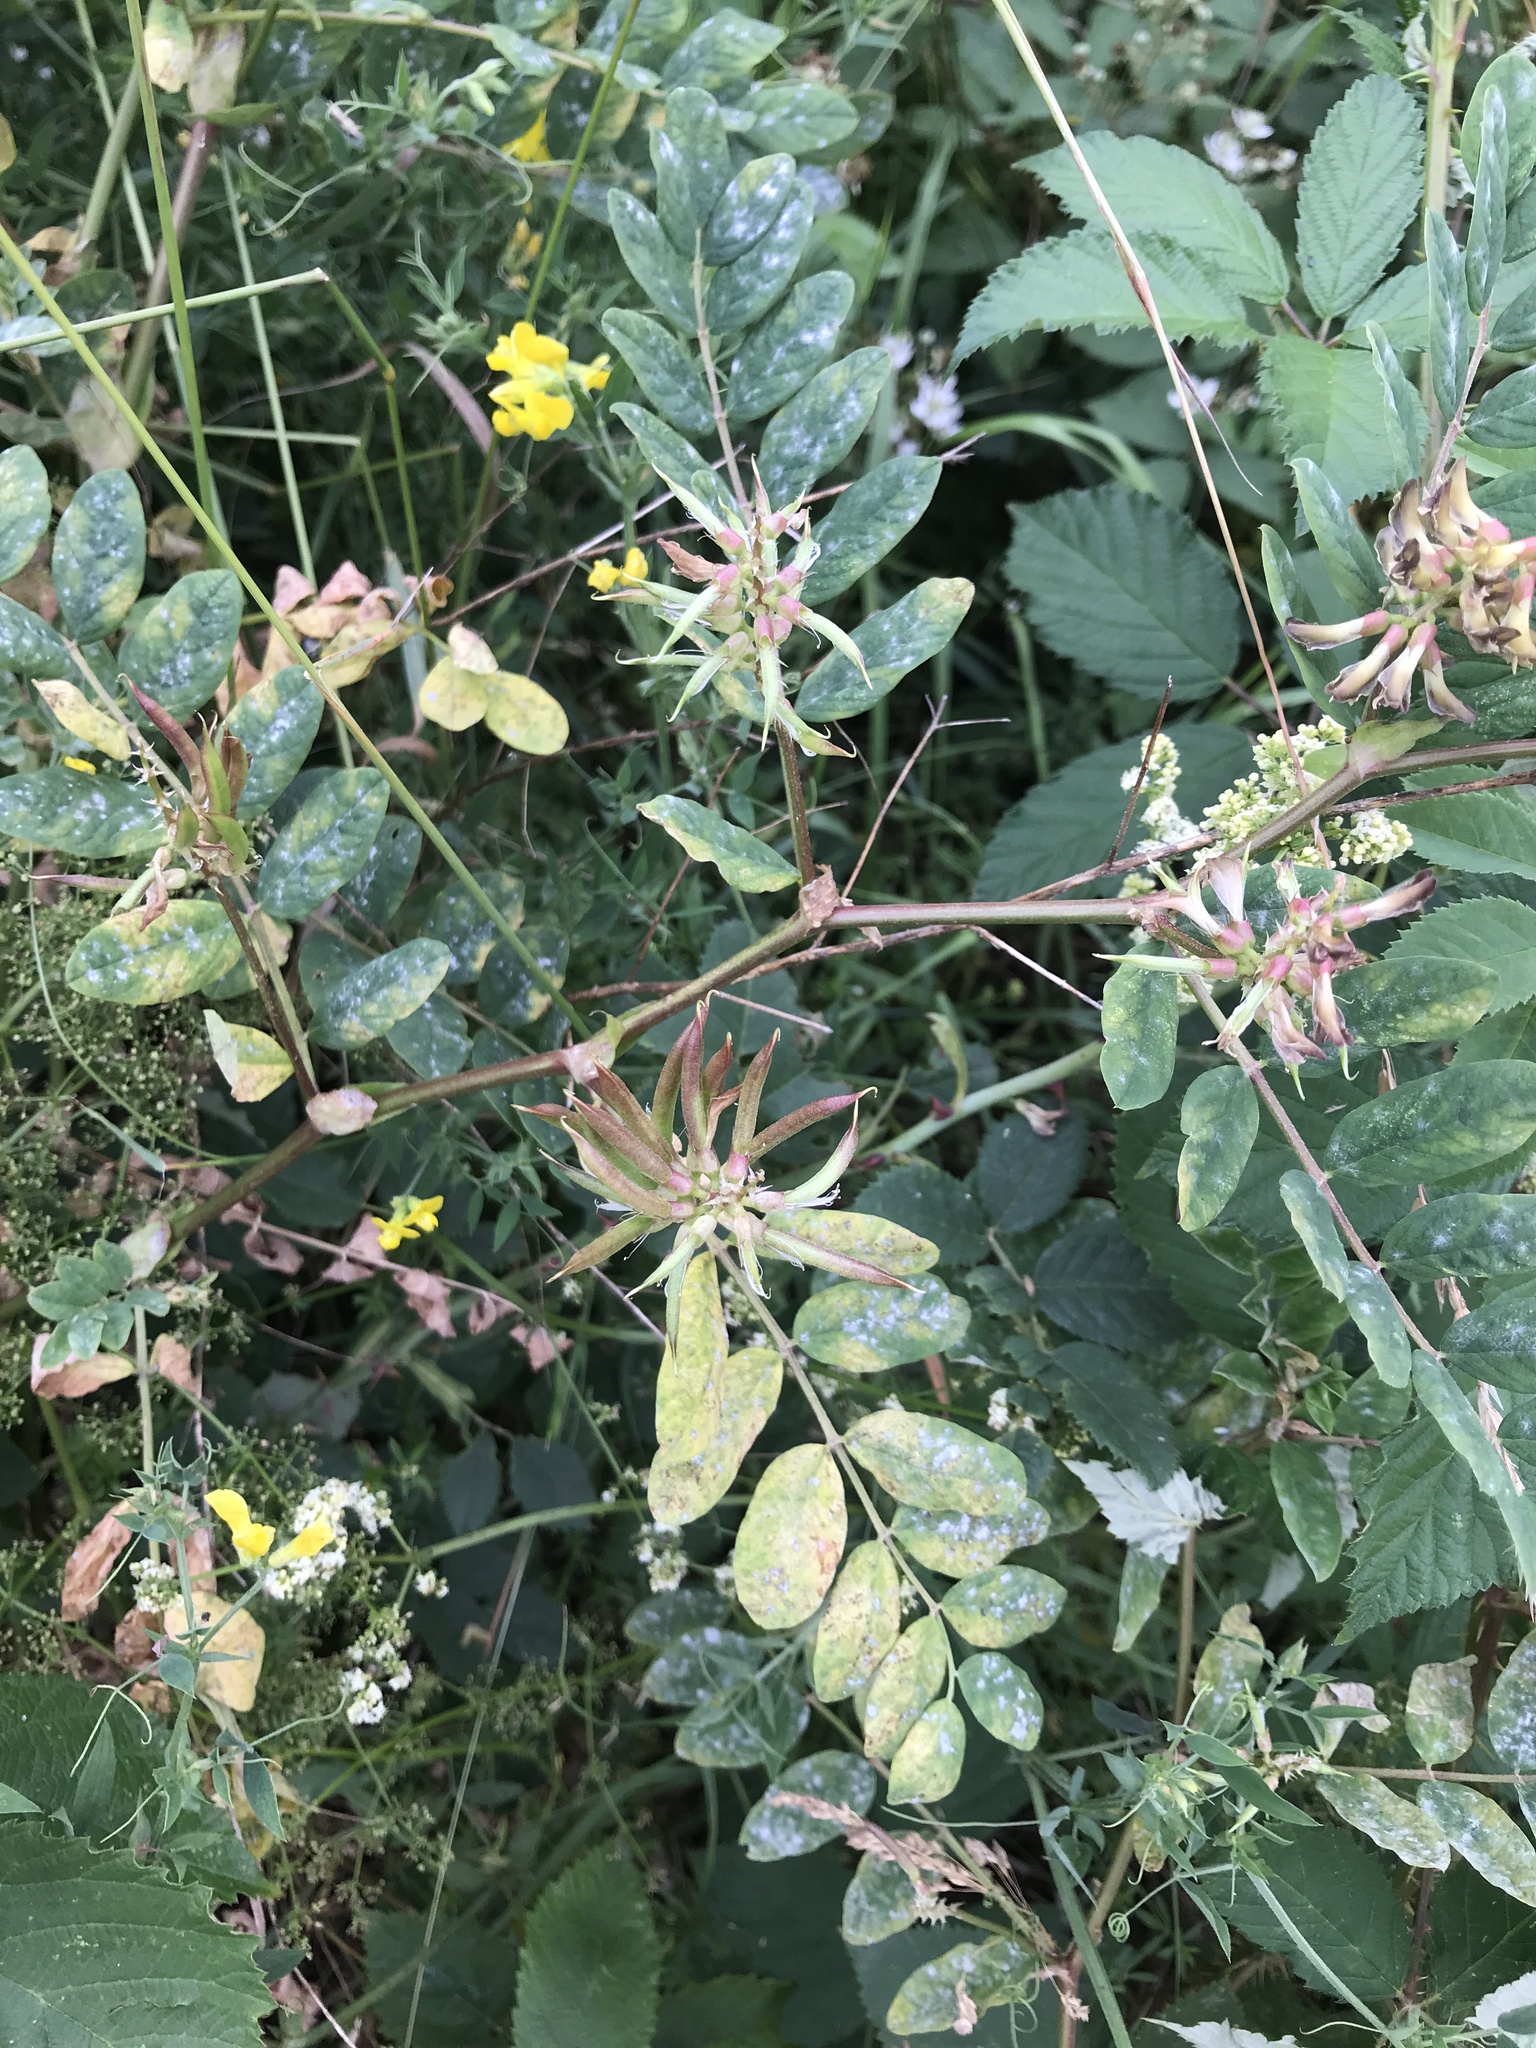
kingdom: Plantae
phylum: Tracheophyta
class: Magnoliopsida
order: Fabales
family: Fabaceae
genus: Astragalus
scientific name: Astragalus glycyphyllos
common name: Wild liquorice
